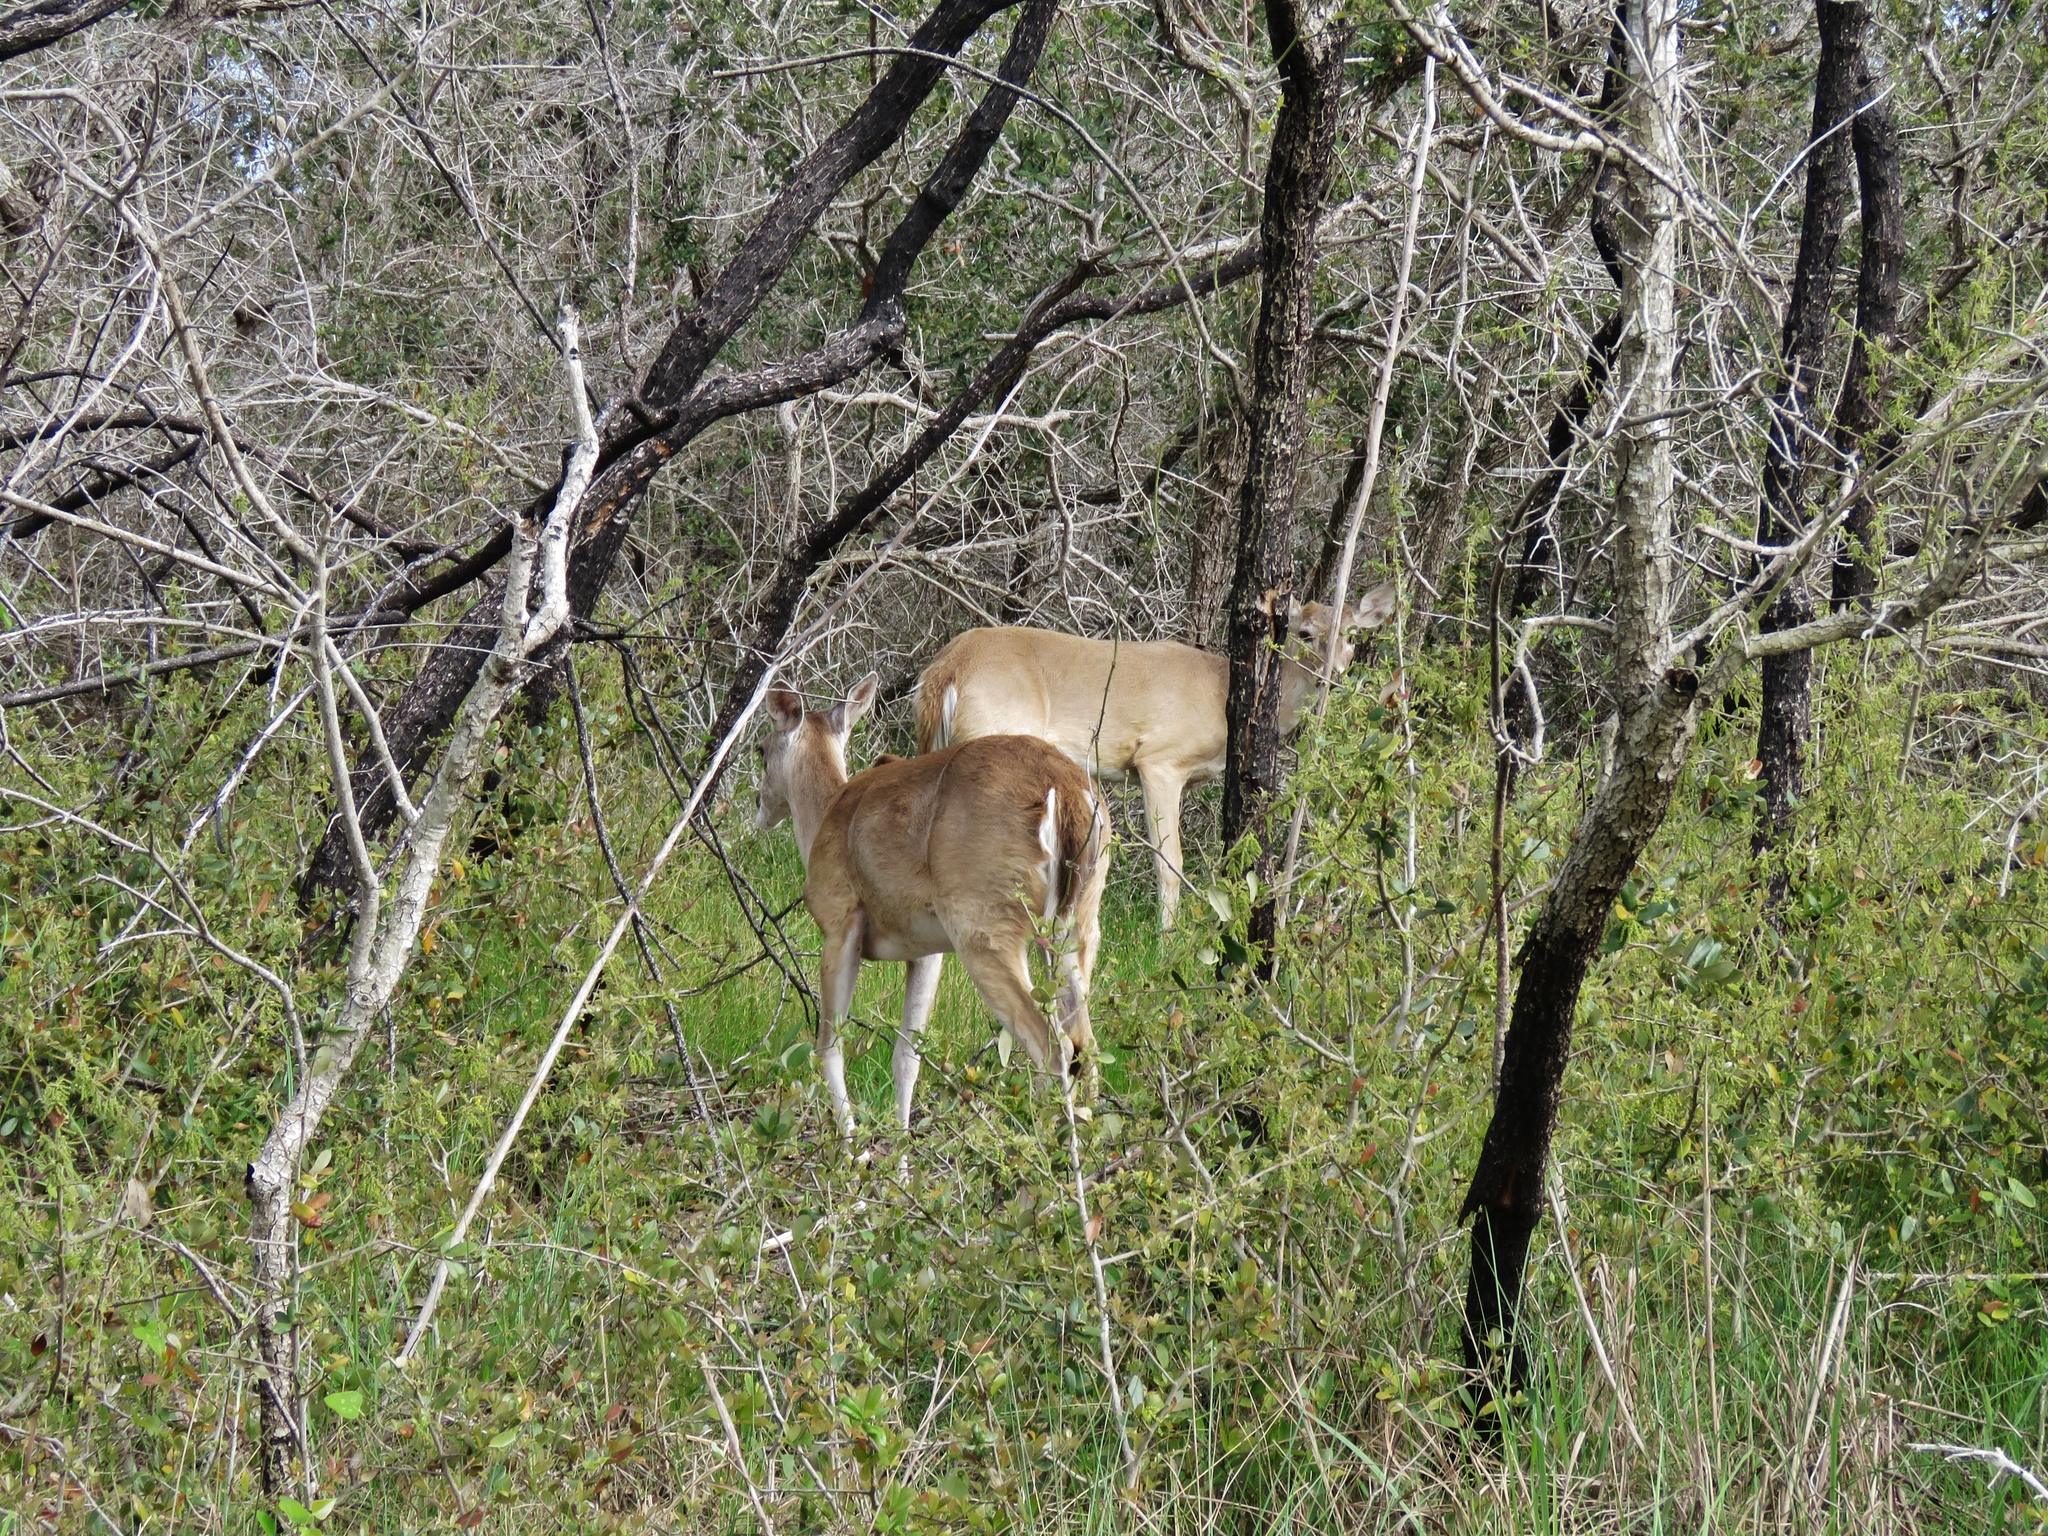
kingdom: Animalia
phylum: Chordata
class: Mammalia
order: Artiodactyla
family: Cervidae
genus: Odocoileus
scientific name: Odocoileus virginianus
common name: White-tailed deer
